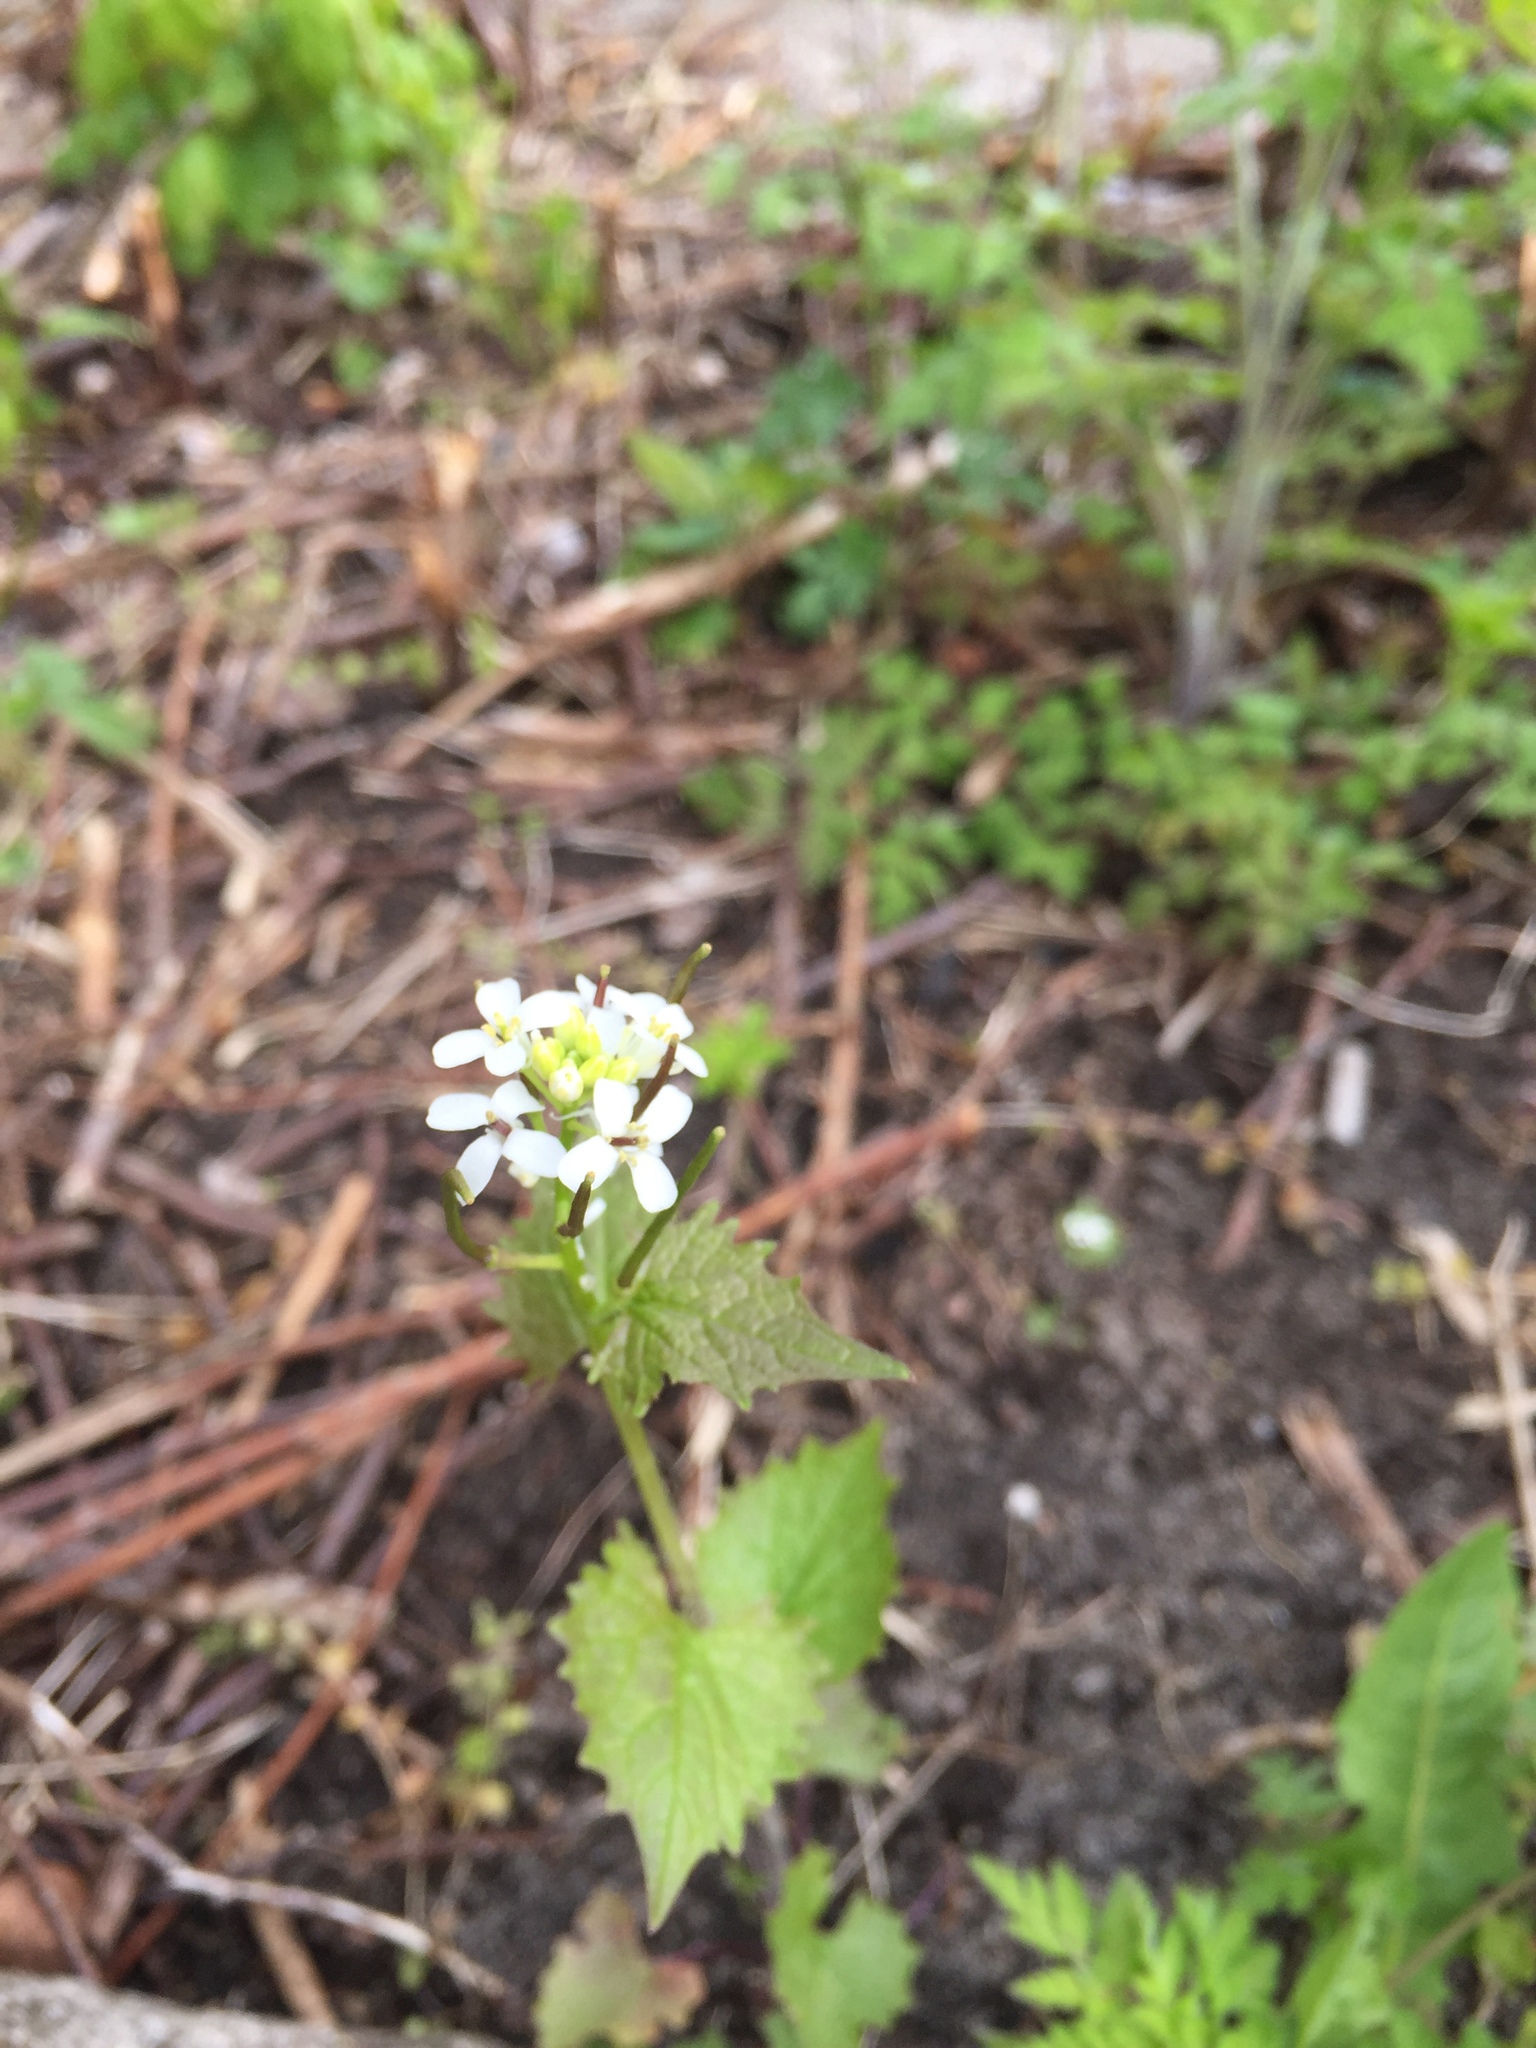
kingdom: Plantae
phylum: Tracheophyta
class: Magnoliopsida
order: Brassicales
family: Brassicaceae
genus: Alliaria
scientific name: Alliaria petiolata
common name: Garlic mustard
